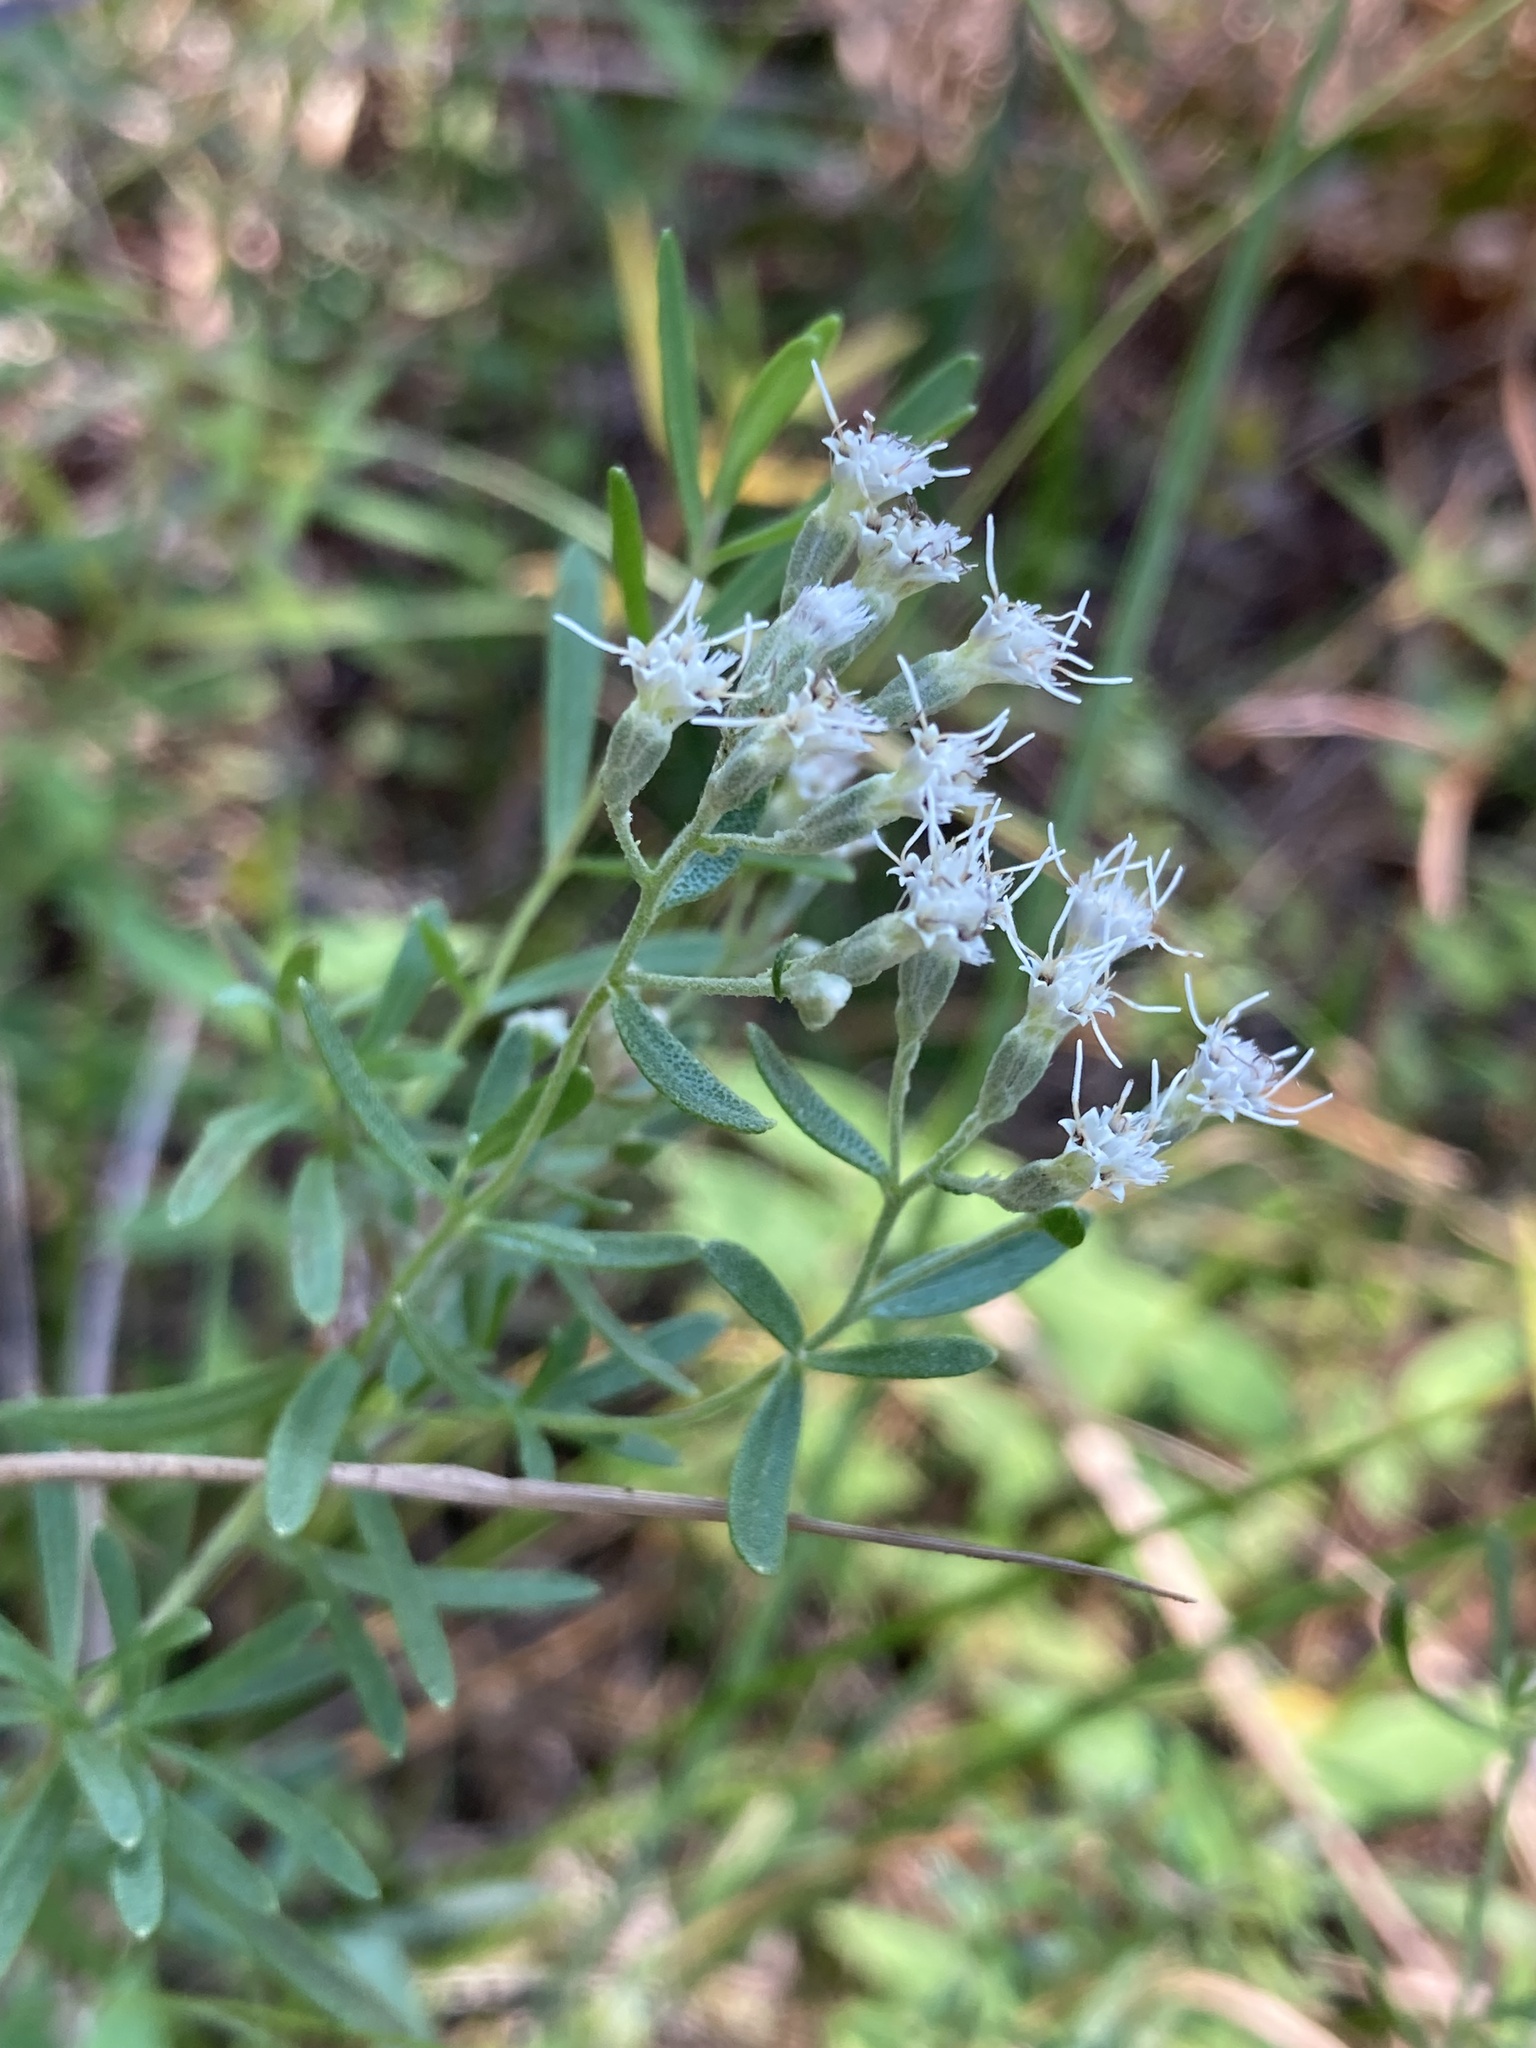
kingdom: Plantae
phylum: Tracheophyta
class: Magnoliopsida
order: Asterales
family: Asteraceae
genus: Eupatorium
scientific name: Eupatorium hyssopifolium
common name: Hyssop-leaf thoroughwort
